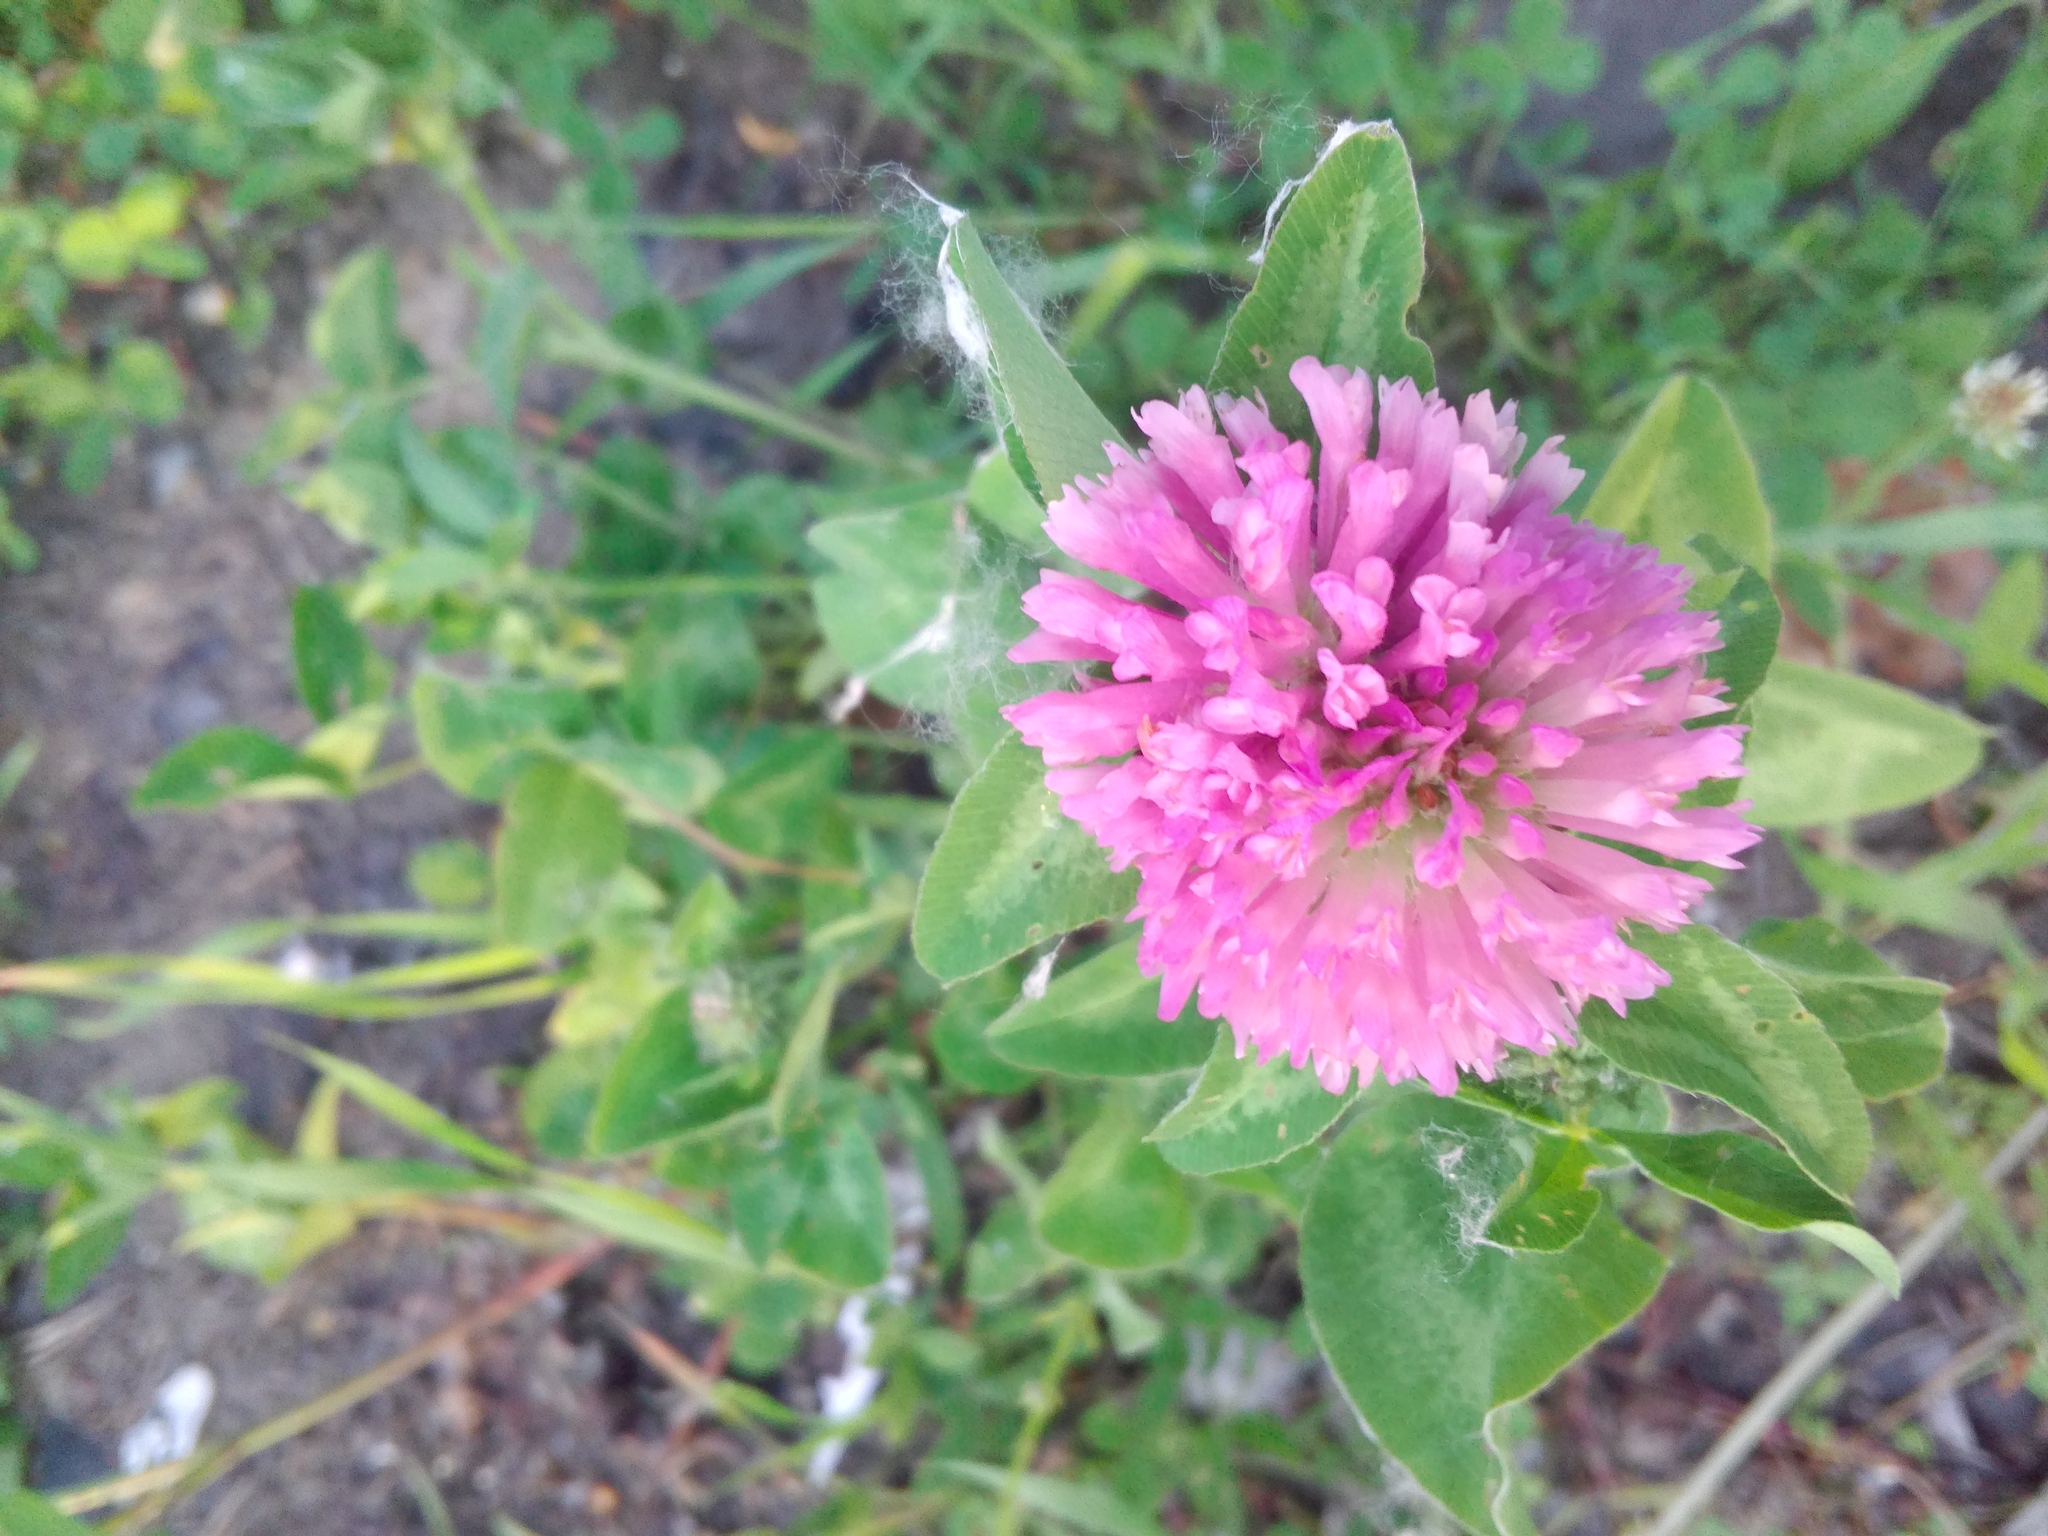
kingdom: Plantae
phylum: Tracheophyta
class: Magnoliopsida
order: Fabales
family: Fabaceae
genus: Trifolium
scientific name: Trifolium pratense
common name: Red clover
